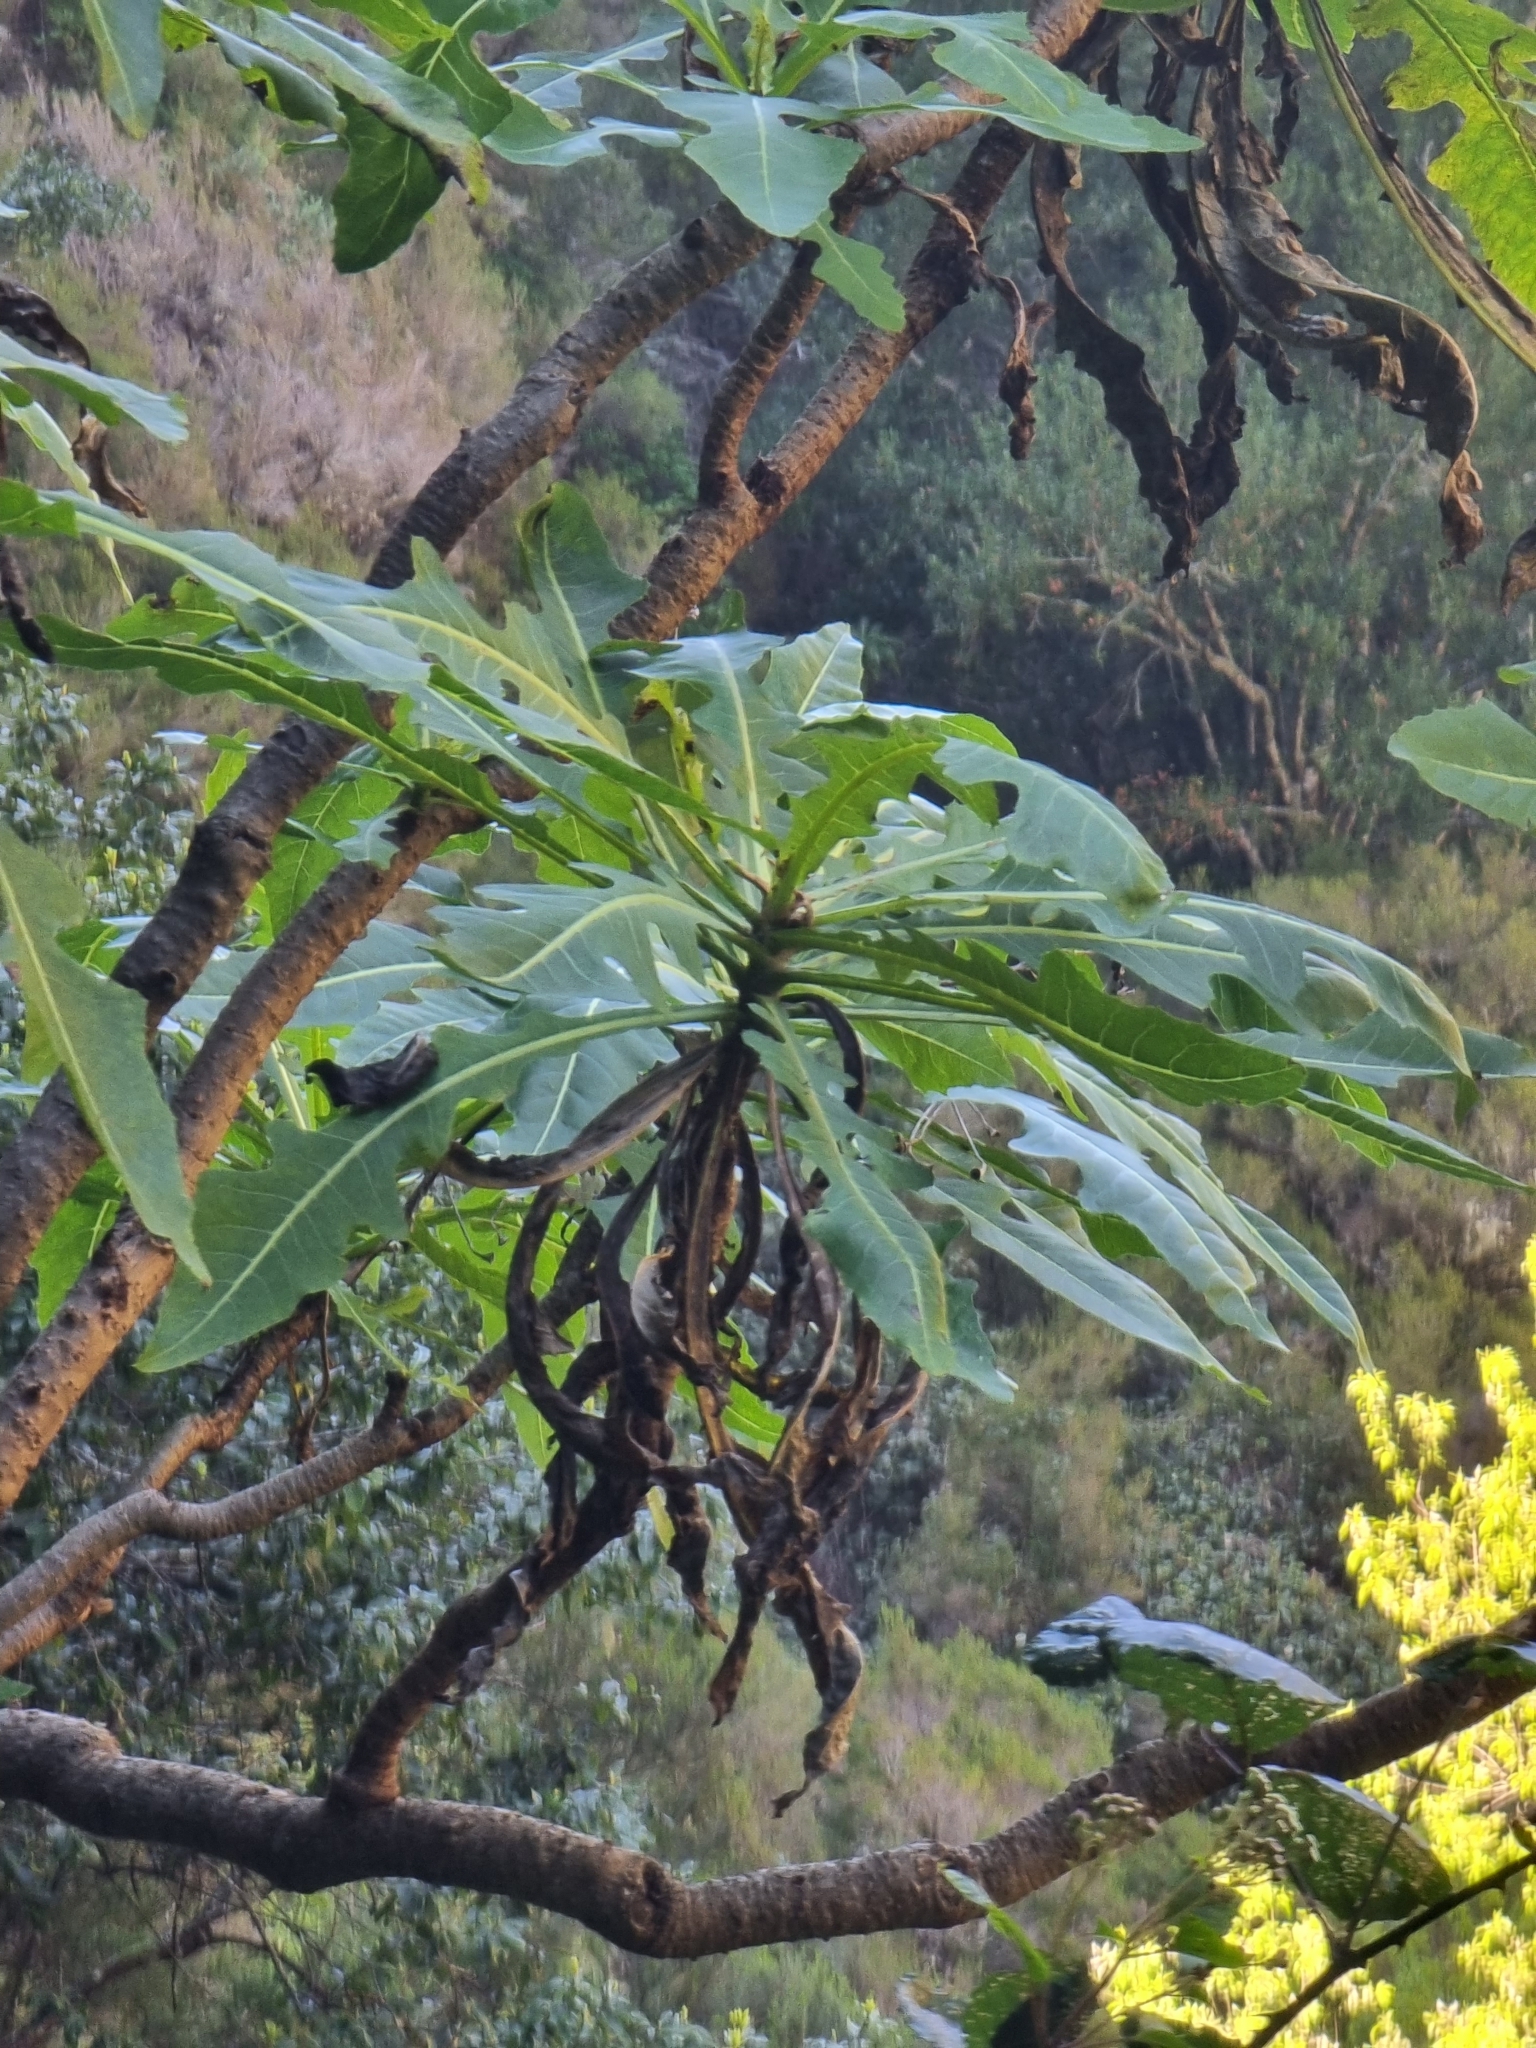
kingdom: Plantae
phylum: Tracheophyta
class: Magnoliopsida
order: Asterales
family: Asteraceae
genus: Sonchus
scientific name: Sonchus fruticosus
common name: Shrubby sow-thistle
